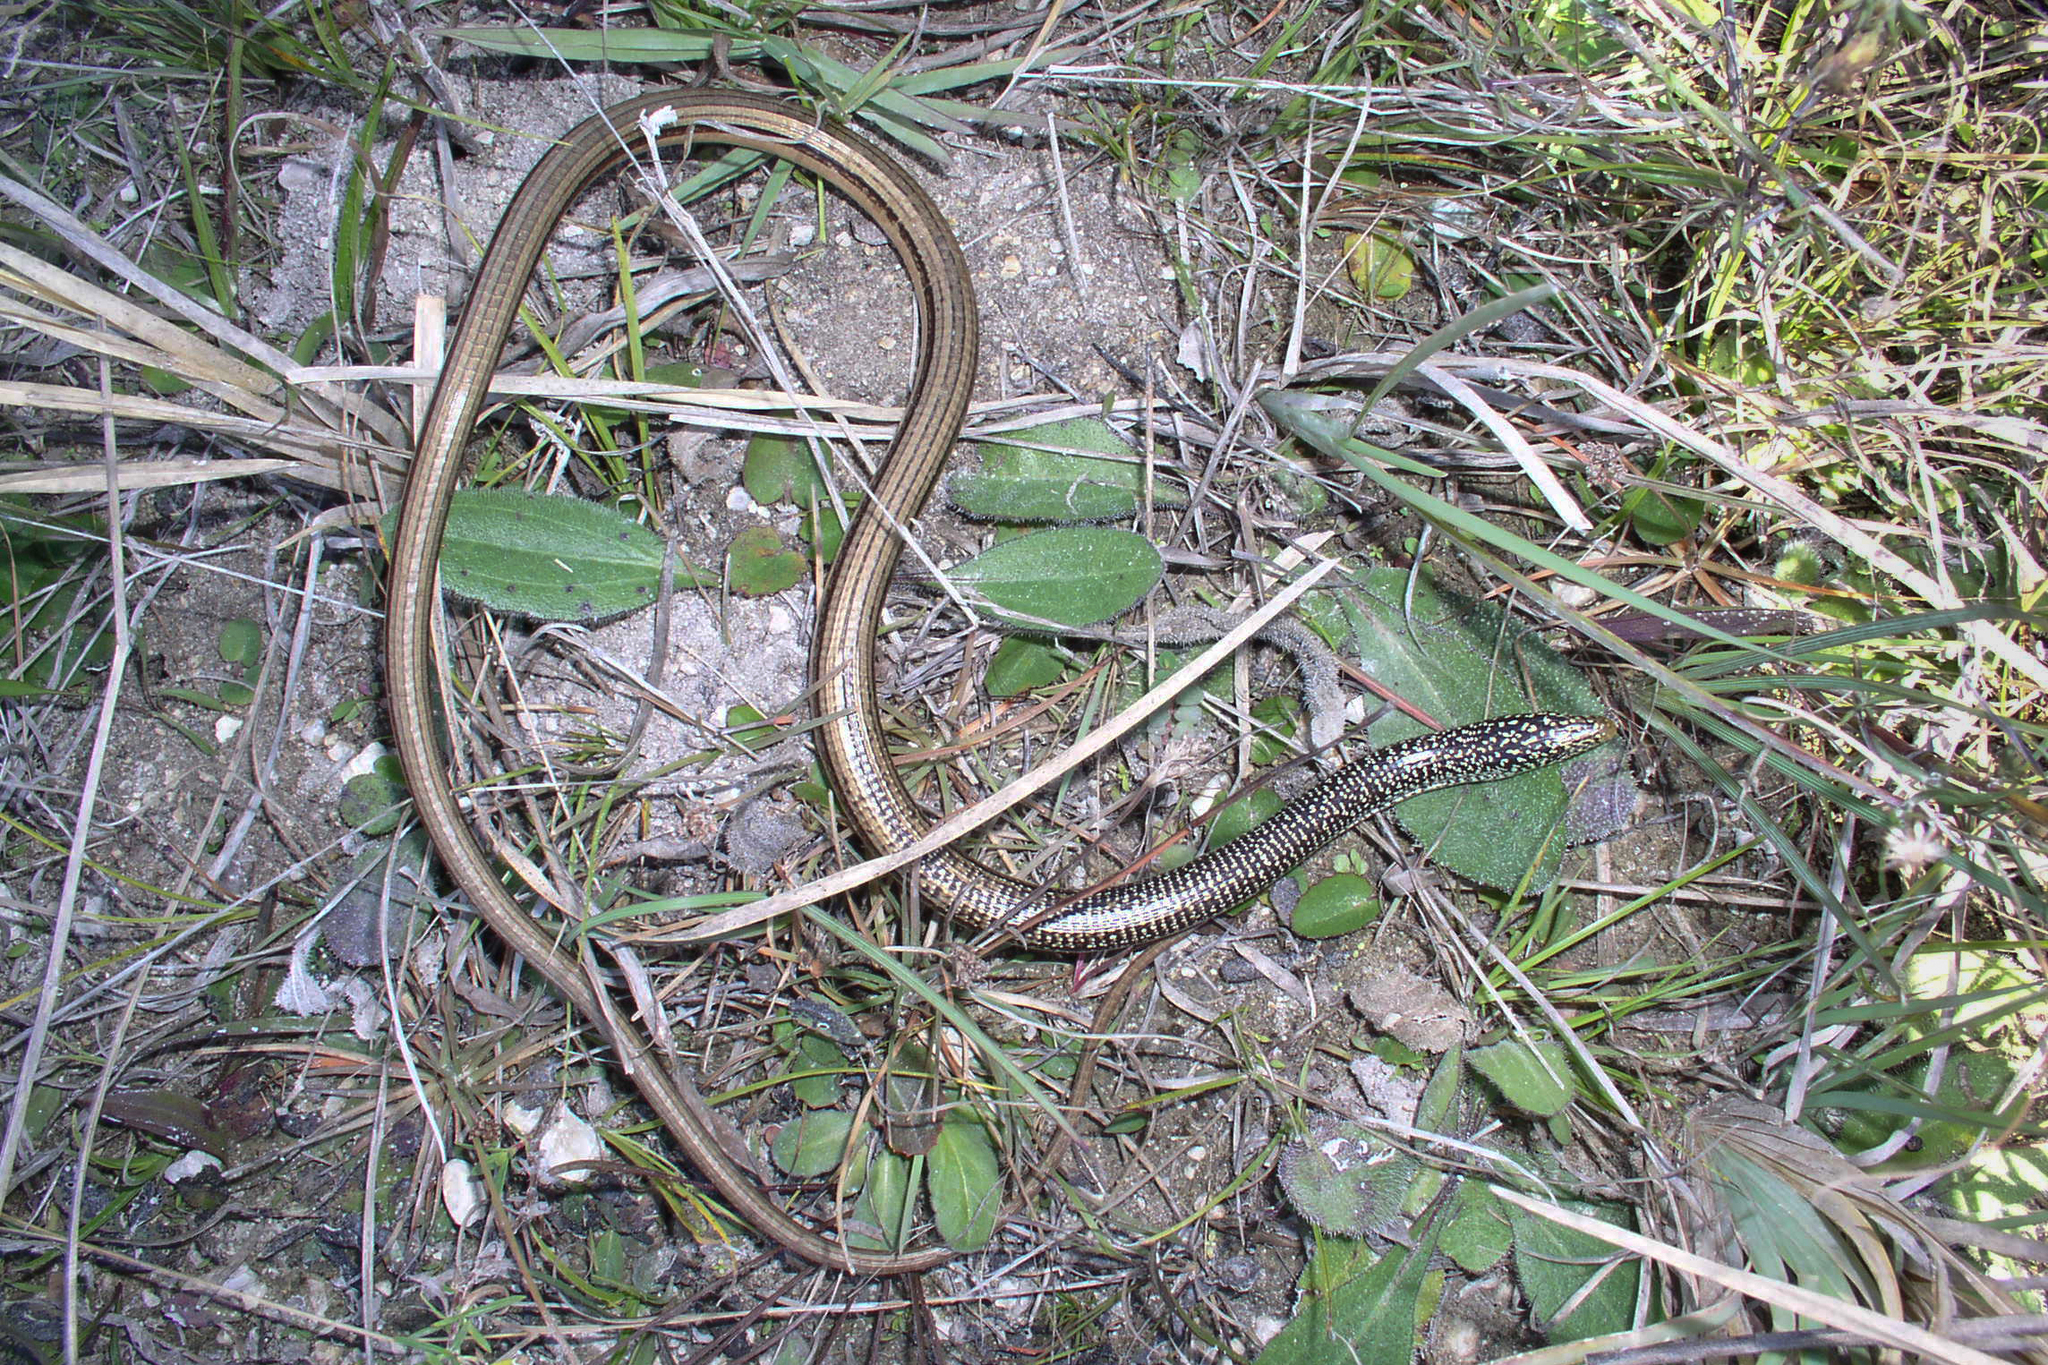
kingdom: Animalia
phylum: Chordata
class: Squamata
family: Anguidae
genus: Ophisaurus
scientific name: Ophisaurus compressus
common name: Island glass lizard
